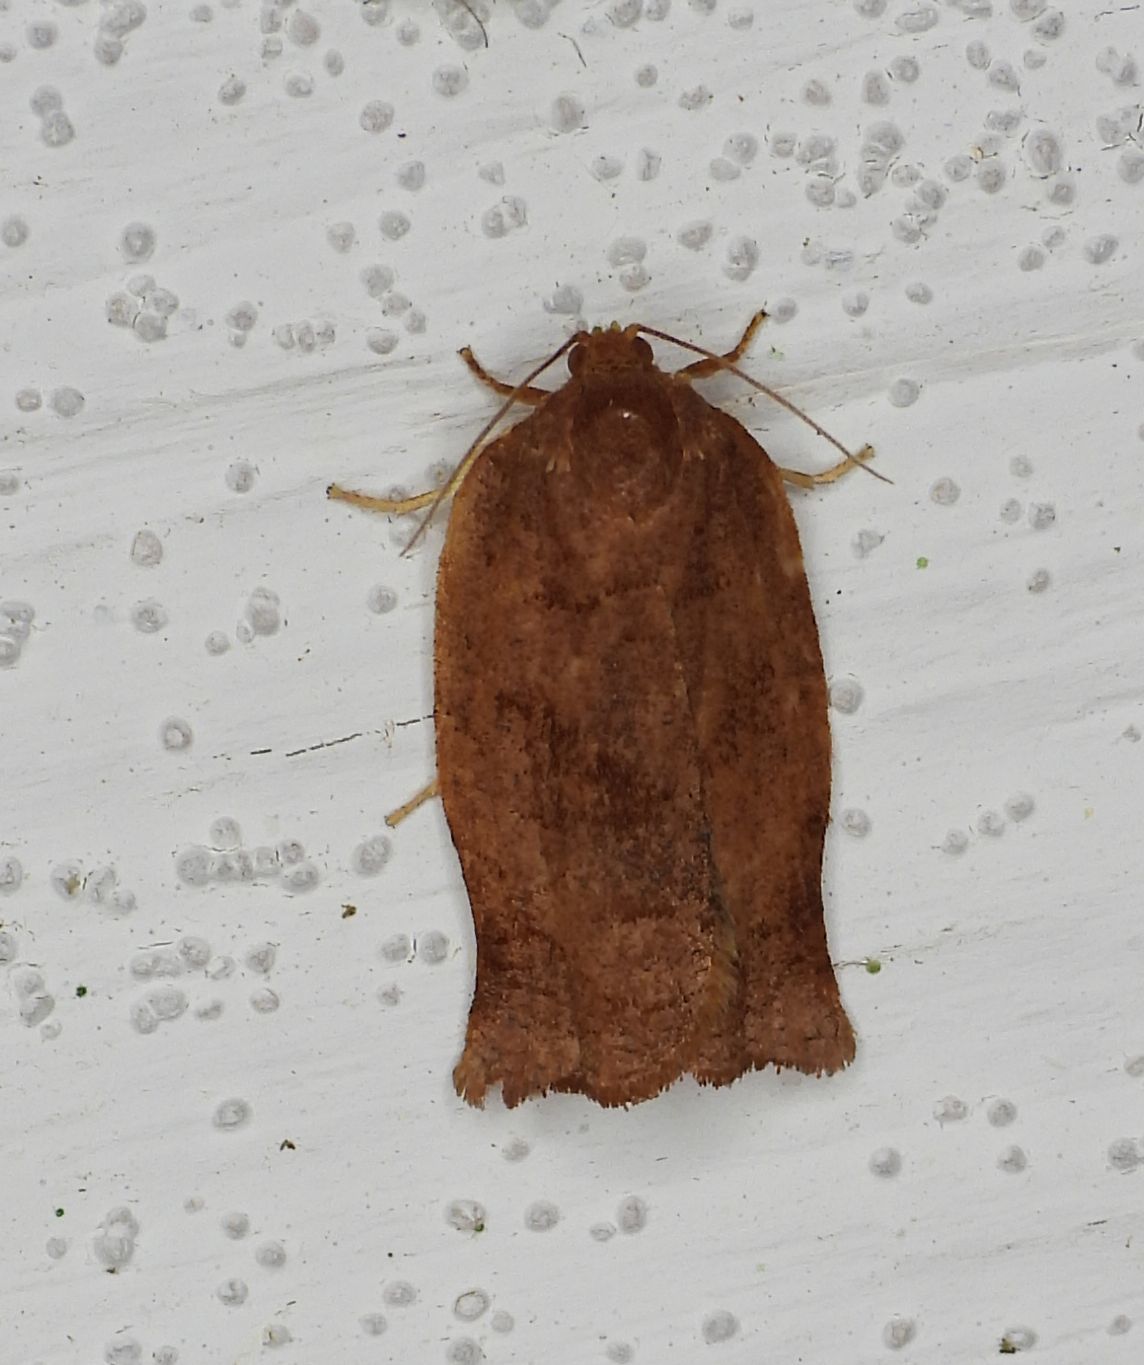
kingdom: Animalia
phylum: Arthropoda
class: Insecta
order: Lepidoptera
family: Tortricidae
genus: Choristoneura
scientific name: Choristoneura rosaceana
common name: Oblique-banded leafroller moth
